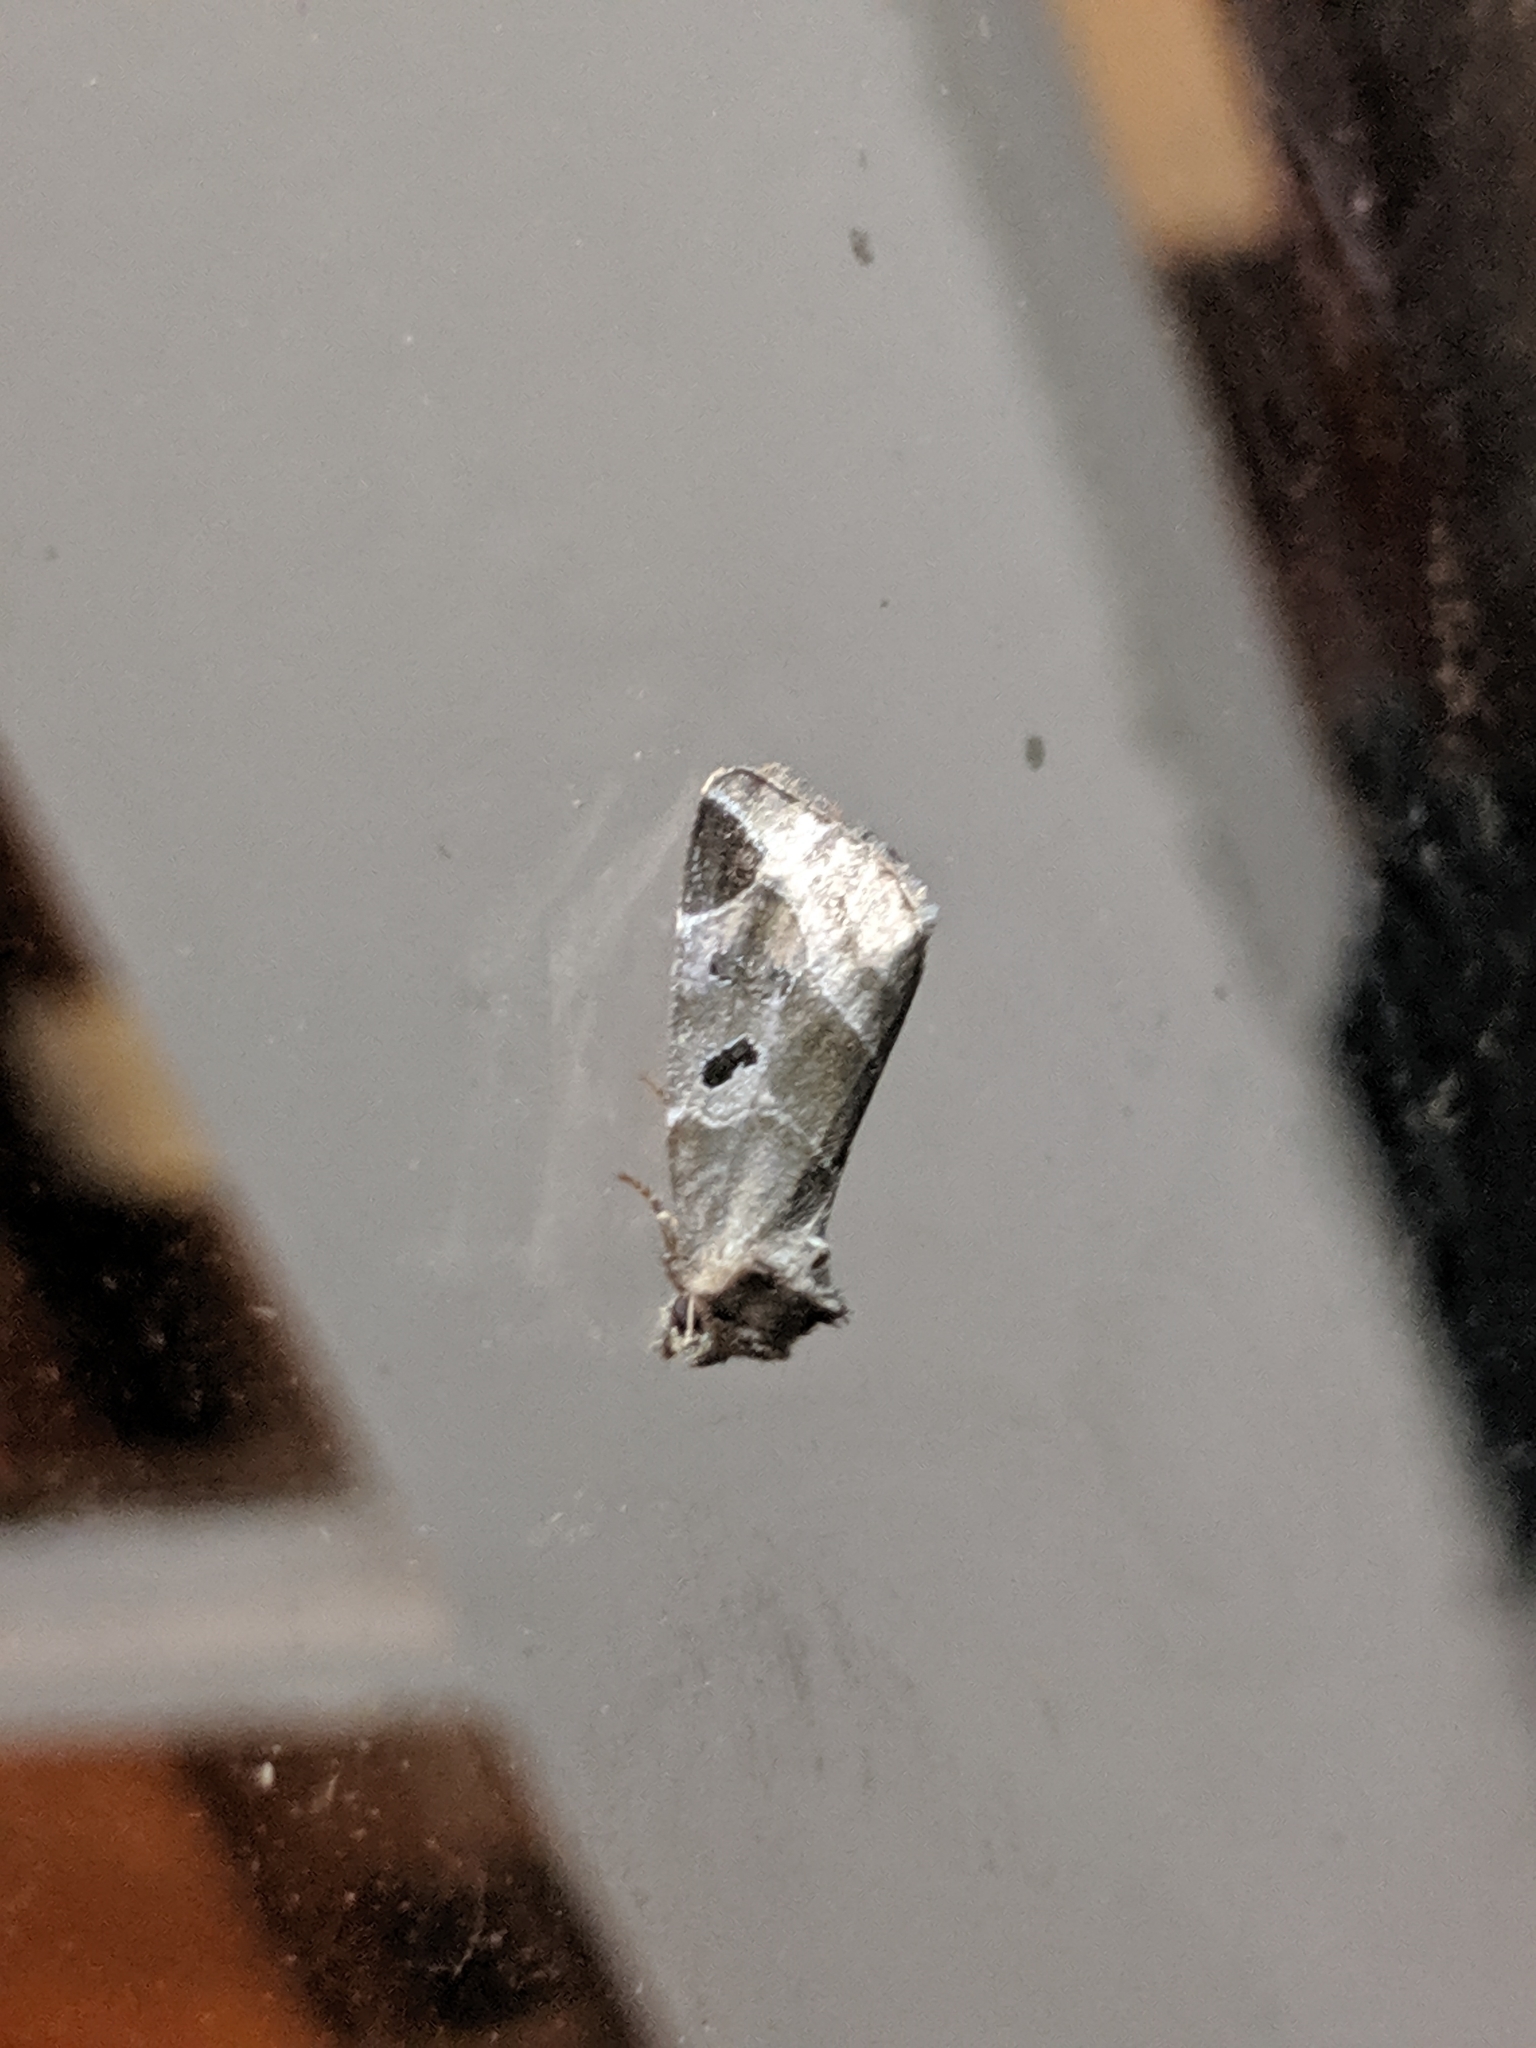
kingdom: Animalia
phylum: Arthropoda
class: Insecta
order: Lepidoptera
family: Noctuidae
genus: Plagiomimicus
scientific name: Plagiomimicus pityochromus
